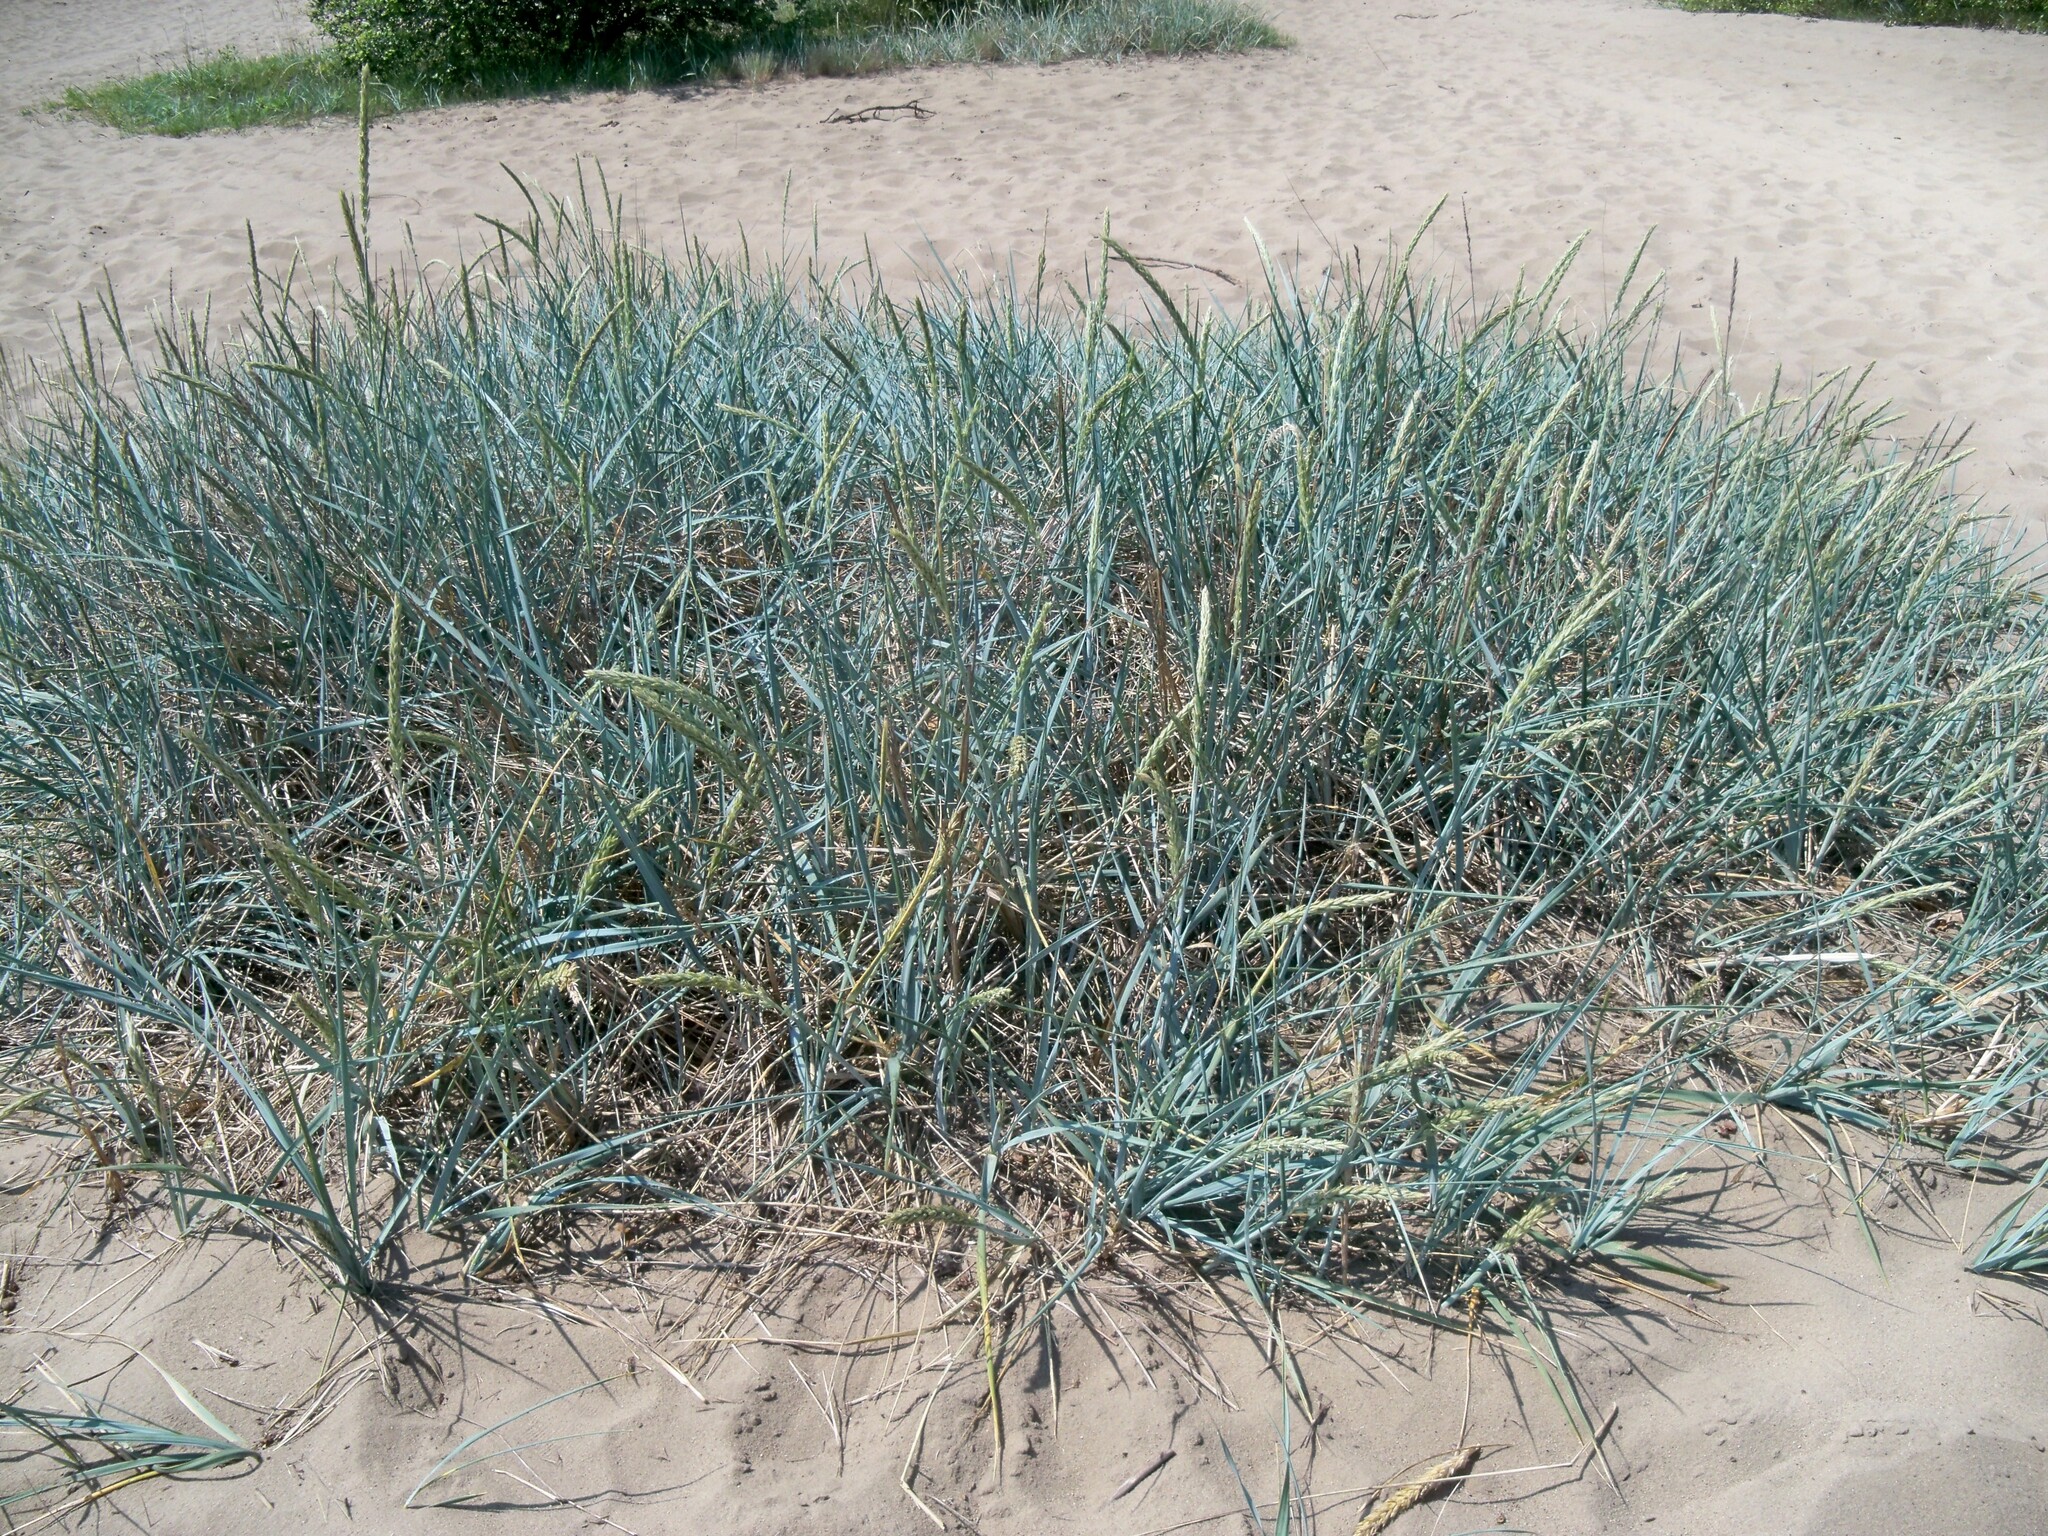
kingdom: Plantae
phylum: Tracheophyta
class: Liliopsida
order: Poales
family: Poaceae
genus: Leymus
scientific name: Leymus arenarius
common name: Lyme-grass
